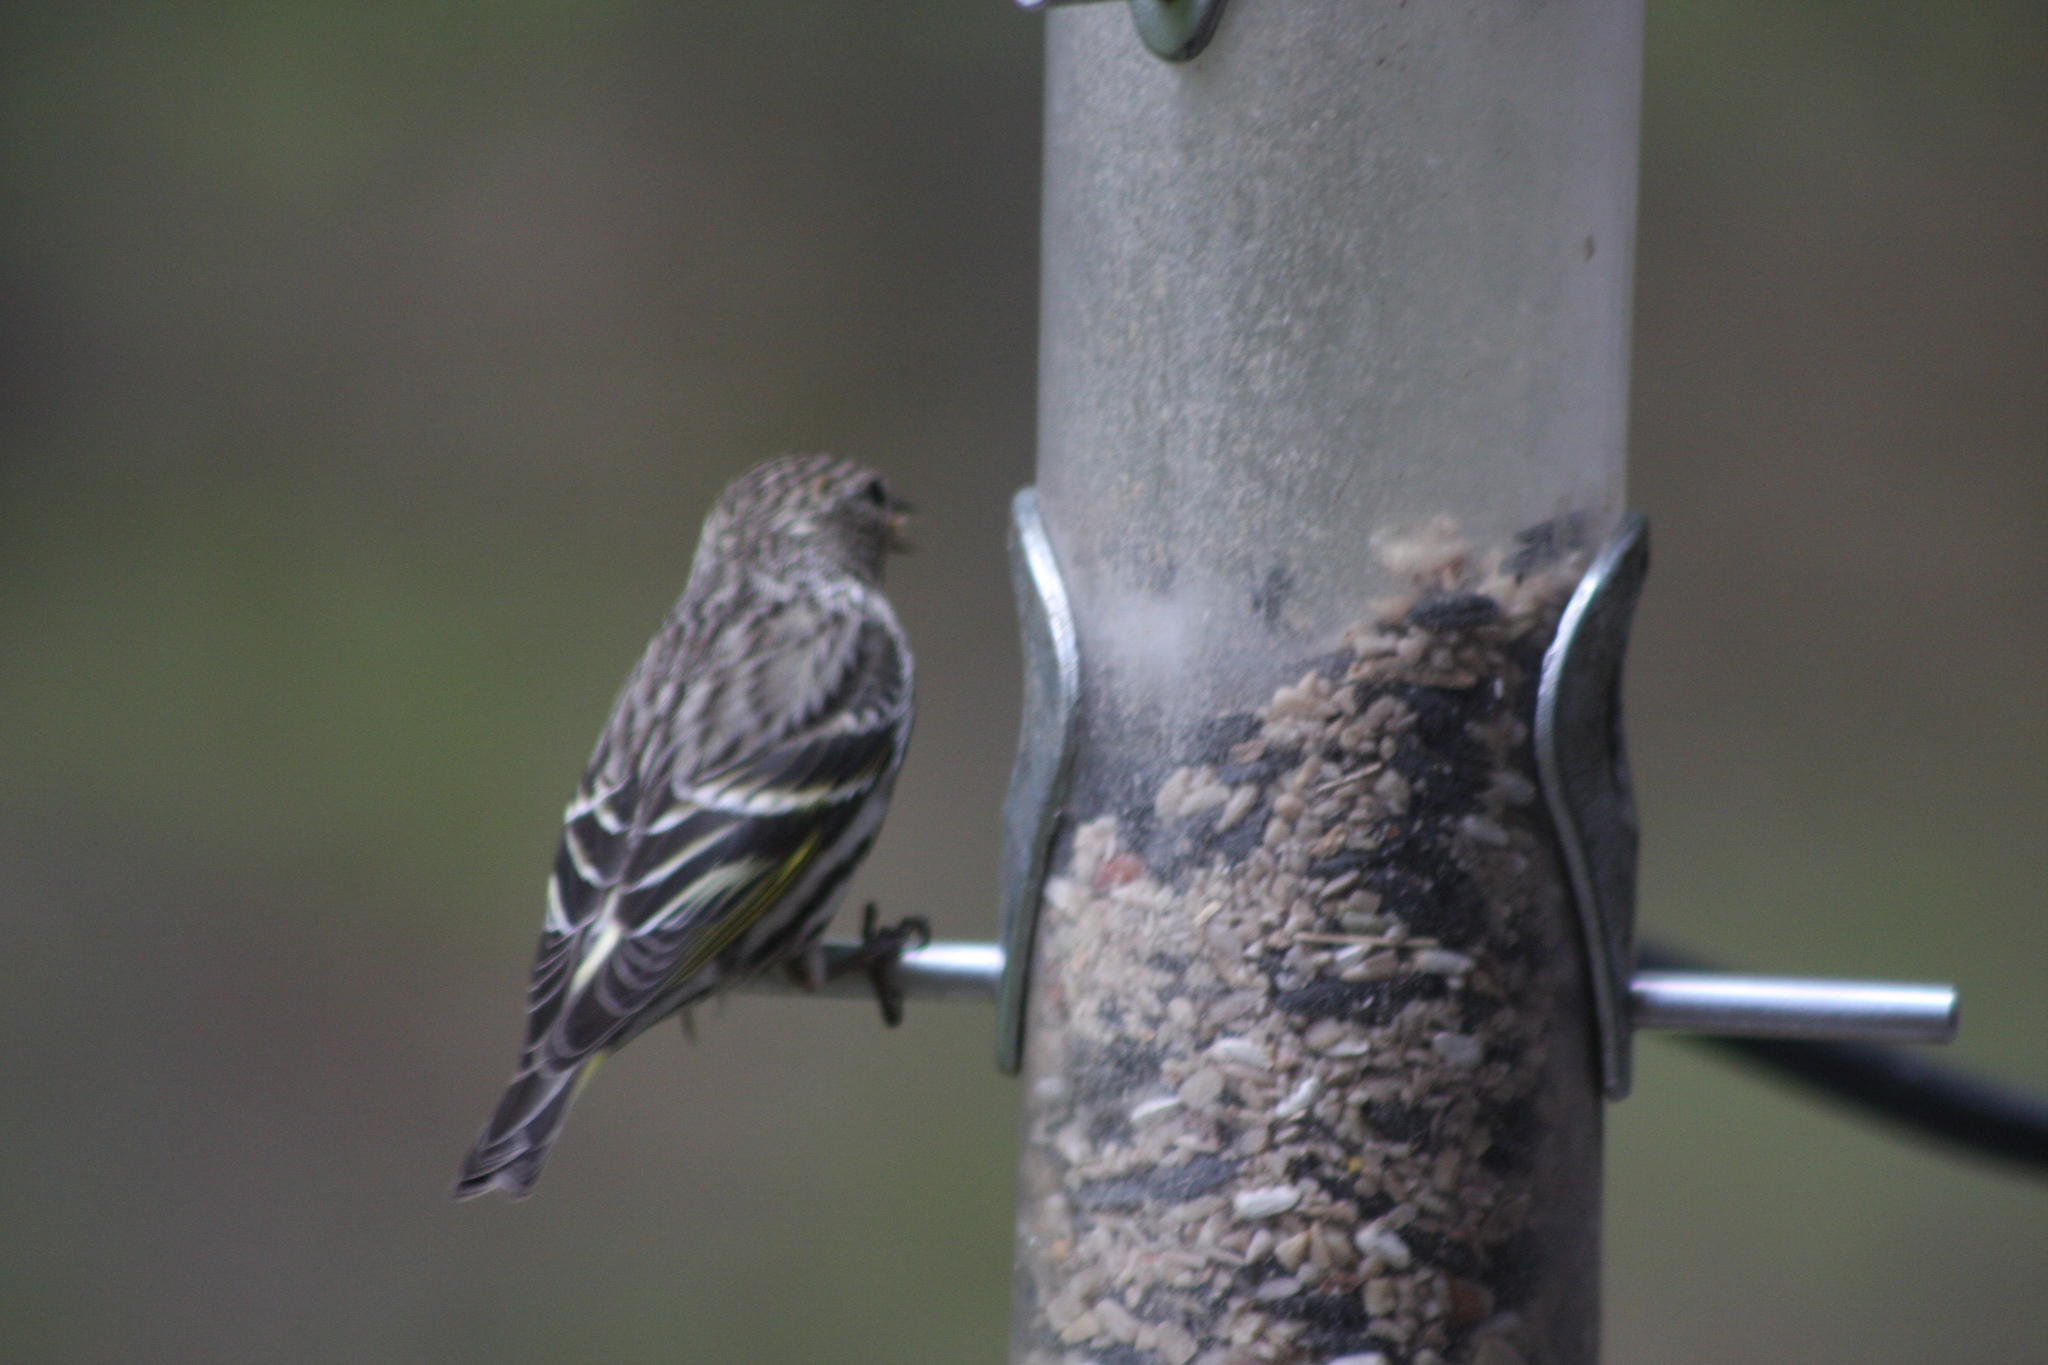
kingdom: Animalia
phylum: Chordata
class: Aves
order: Passeriformes
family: Fringillidae
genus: Spinus
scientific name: Spinus pinus
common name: Pine siskin
